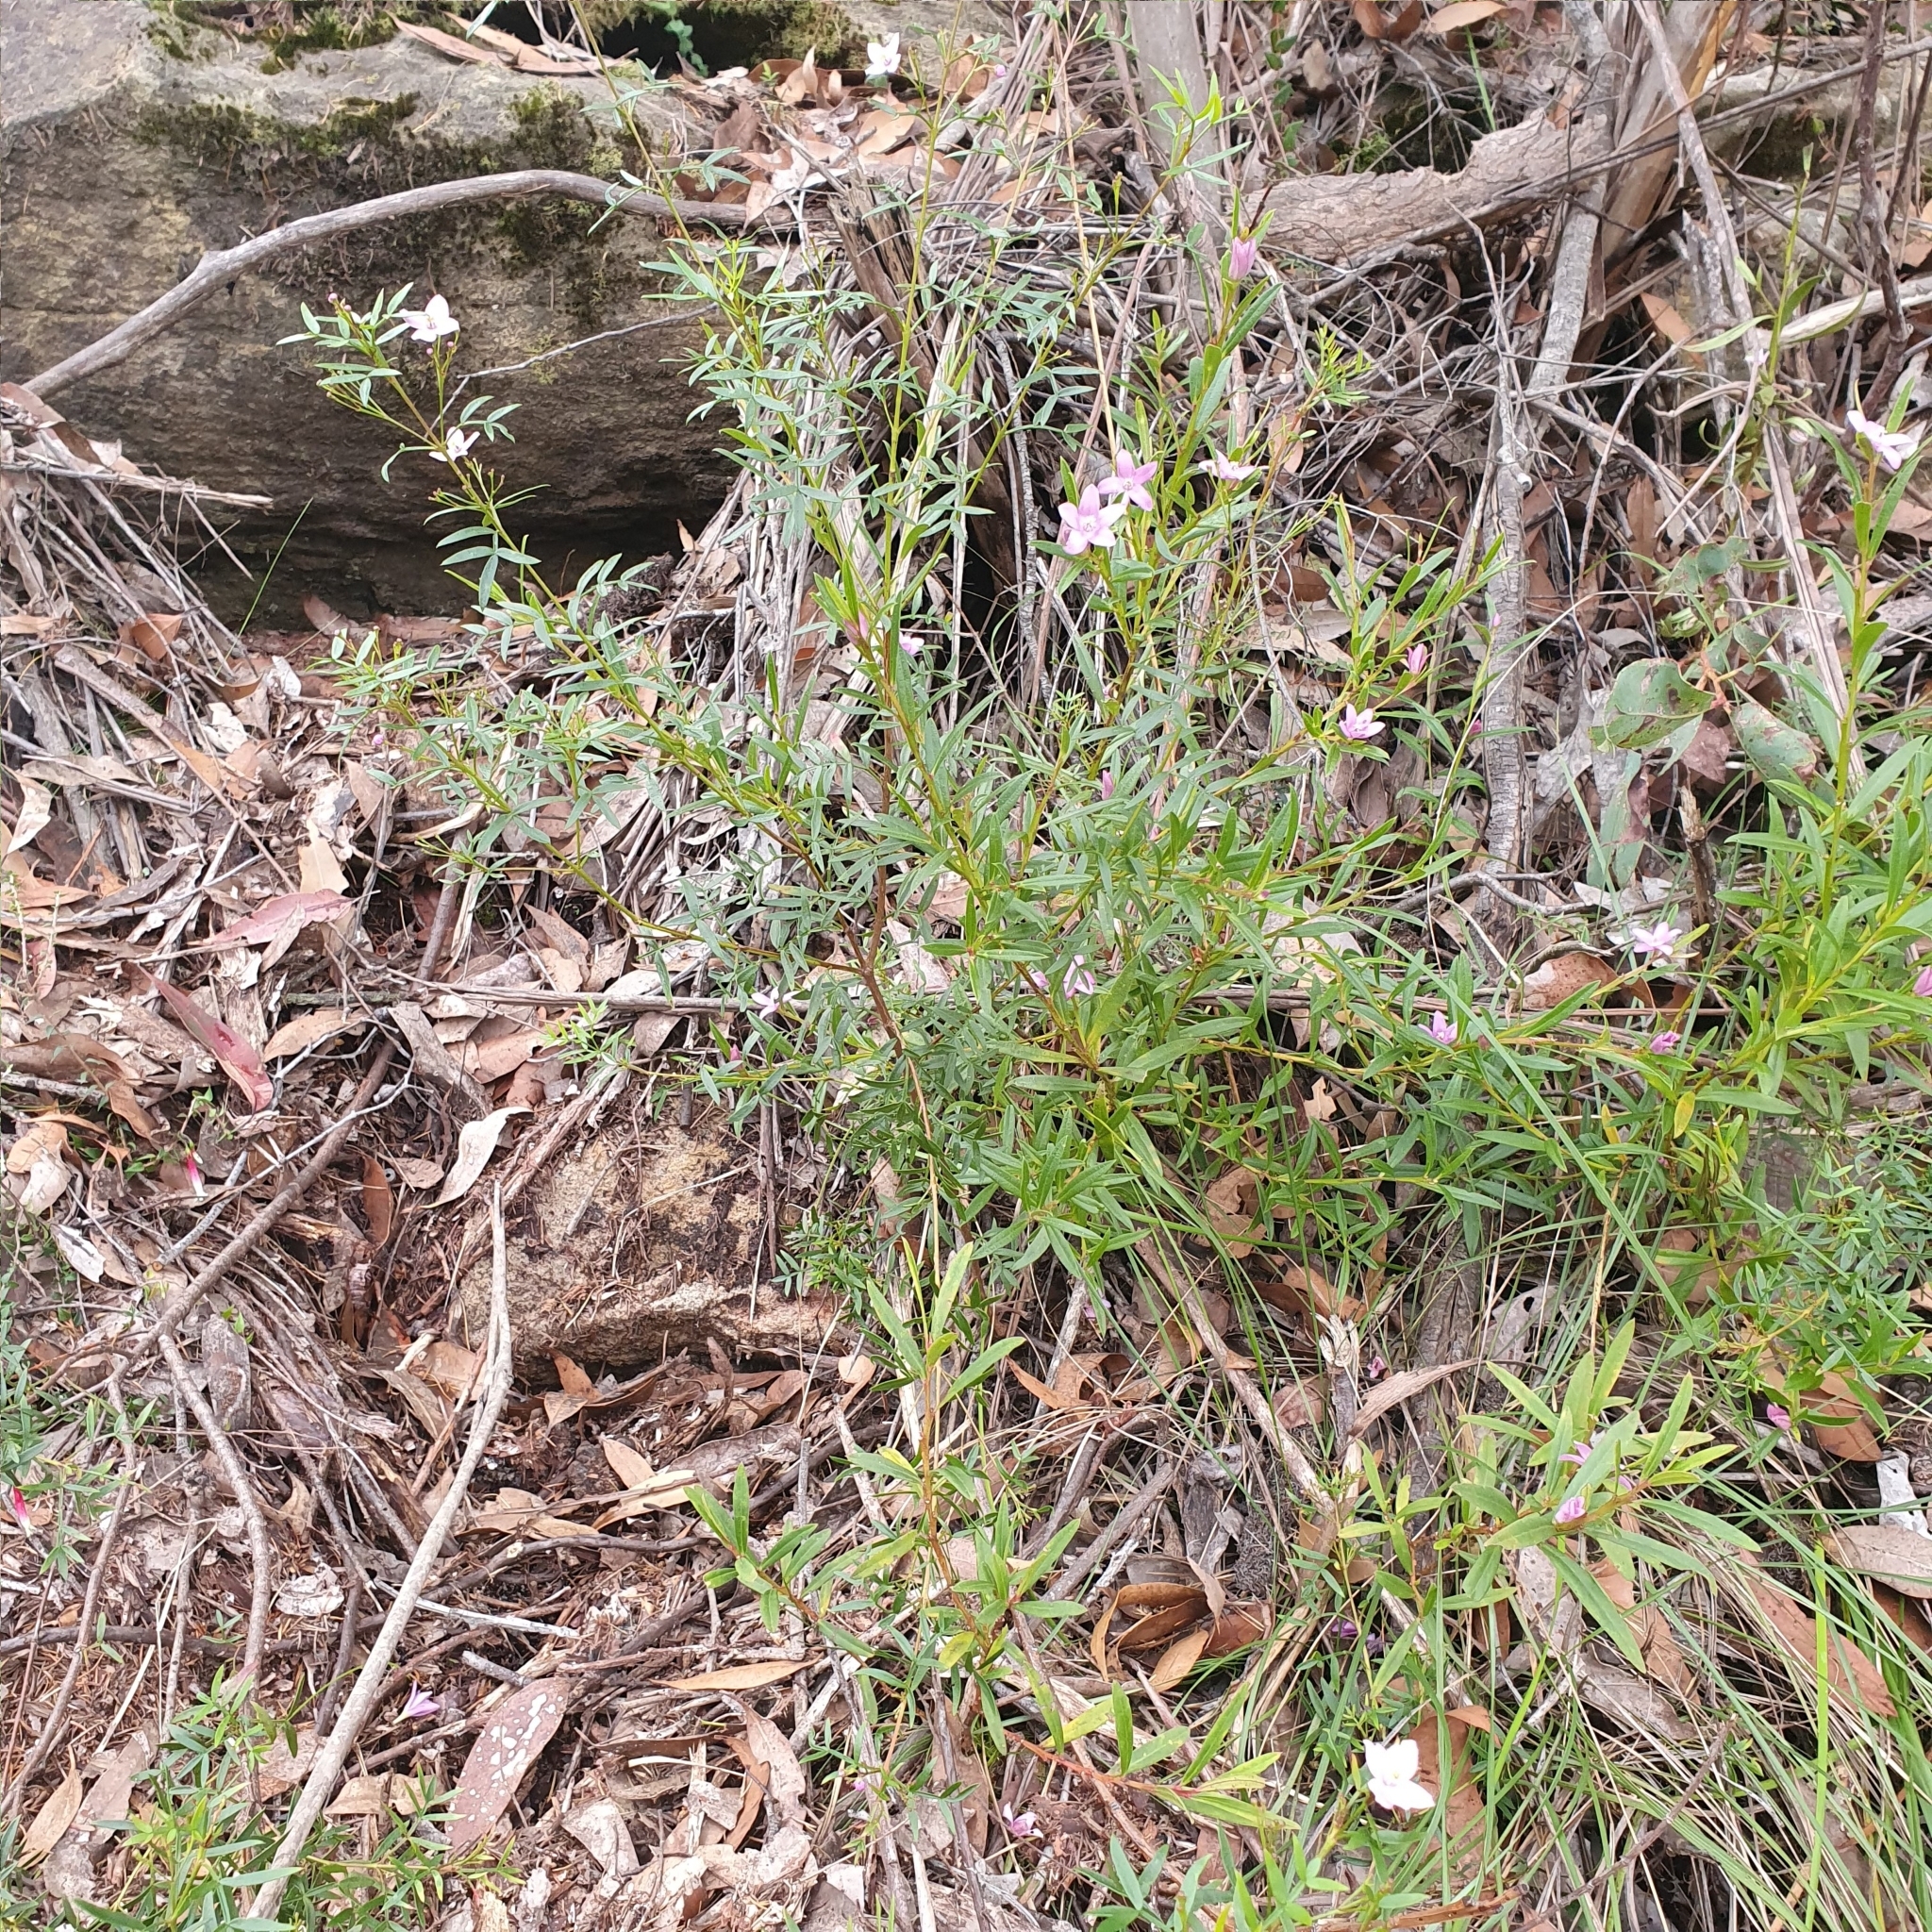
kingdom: Plantae
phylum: Tracheophyta
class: Magnoliopsida
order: Sapindales
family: Rutaceae
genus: Boronia
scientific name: Boronia pinnata
